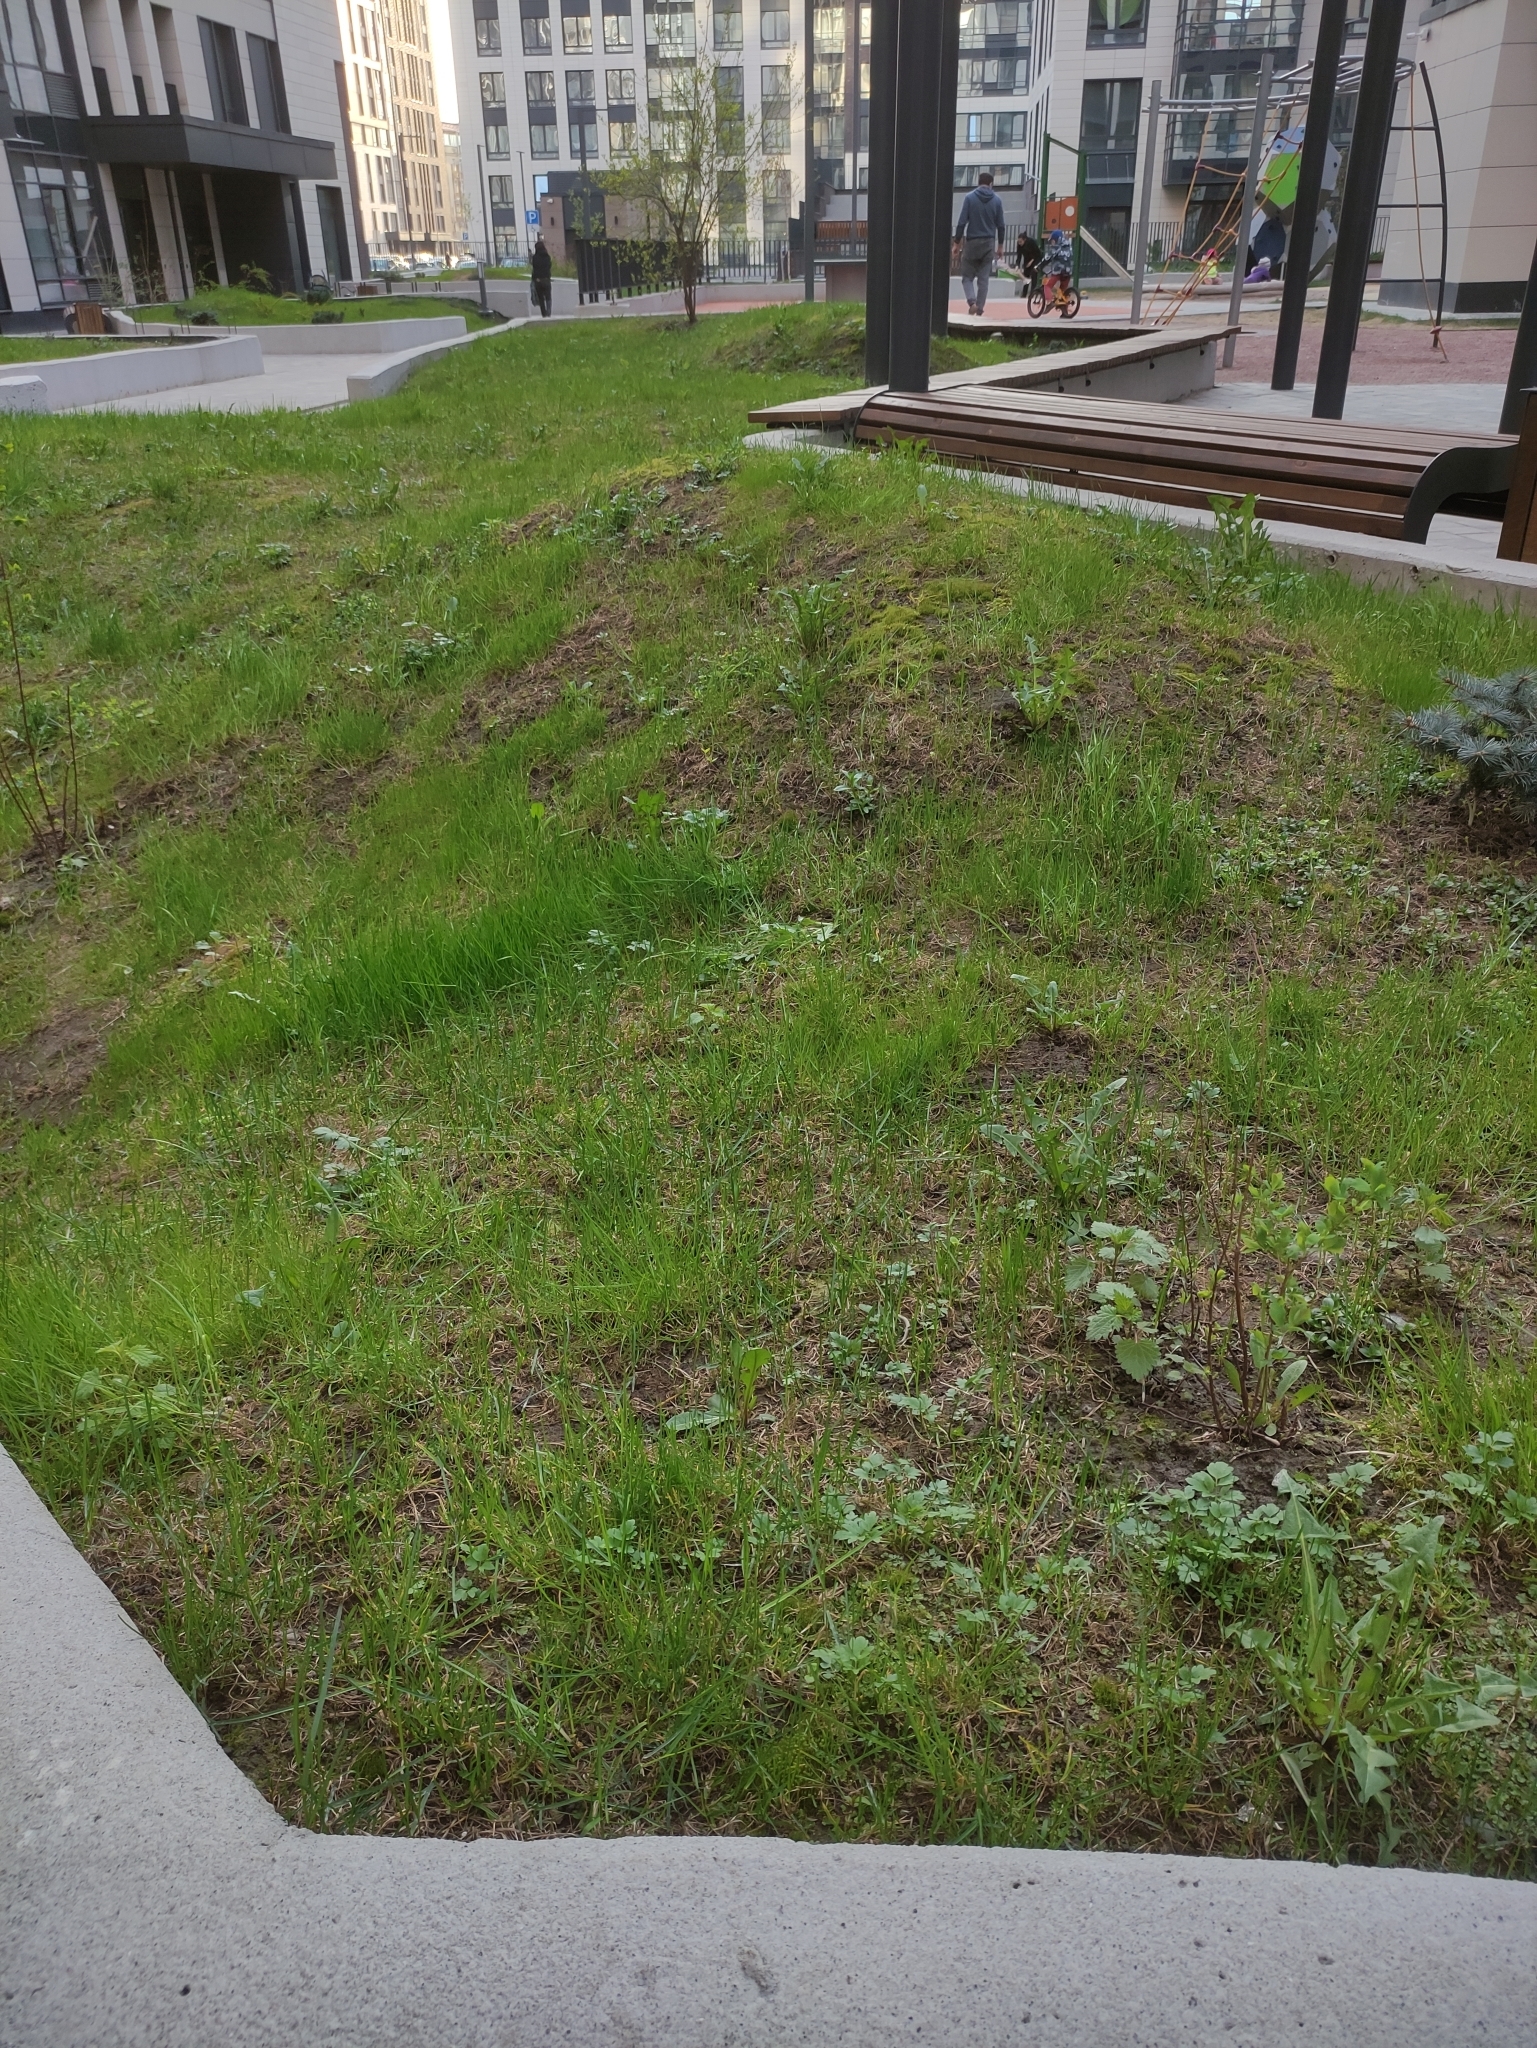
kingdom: Plantae
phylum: Marchantiophyta
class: Marchantiopsida
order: Marchantiales
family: Marchantiaceae
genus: Marchantia
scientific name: Marchantia polymorpha
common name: Common liverwort
